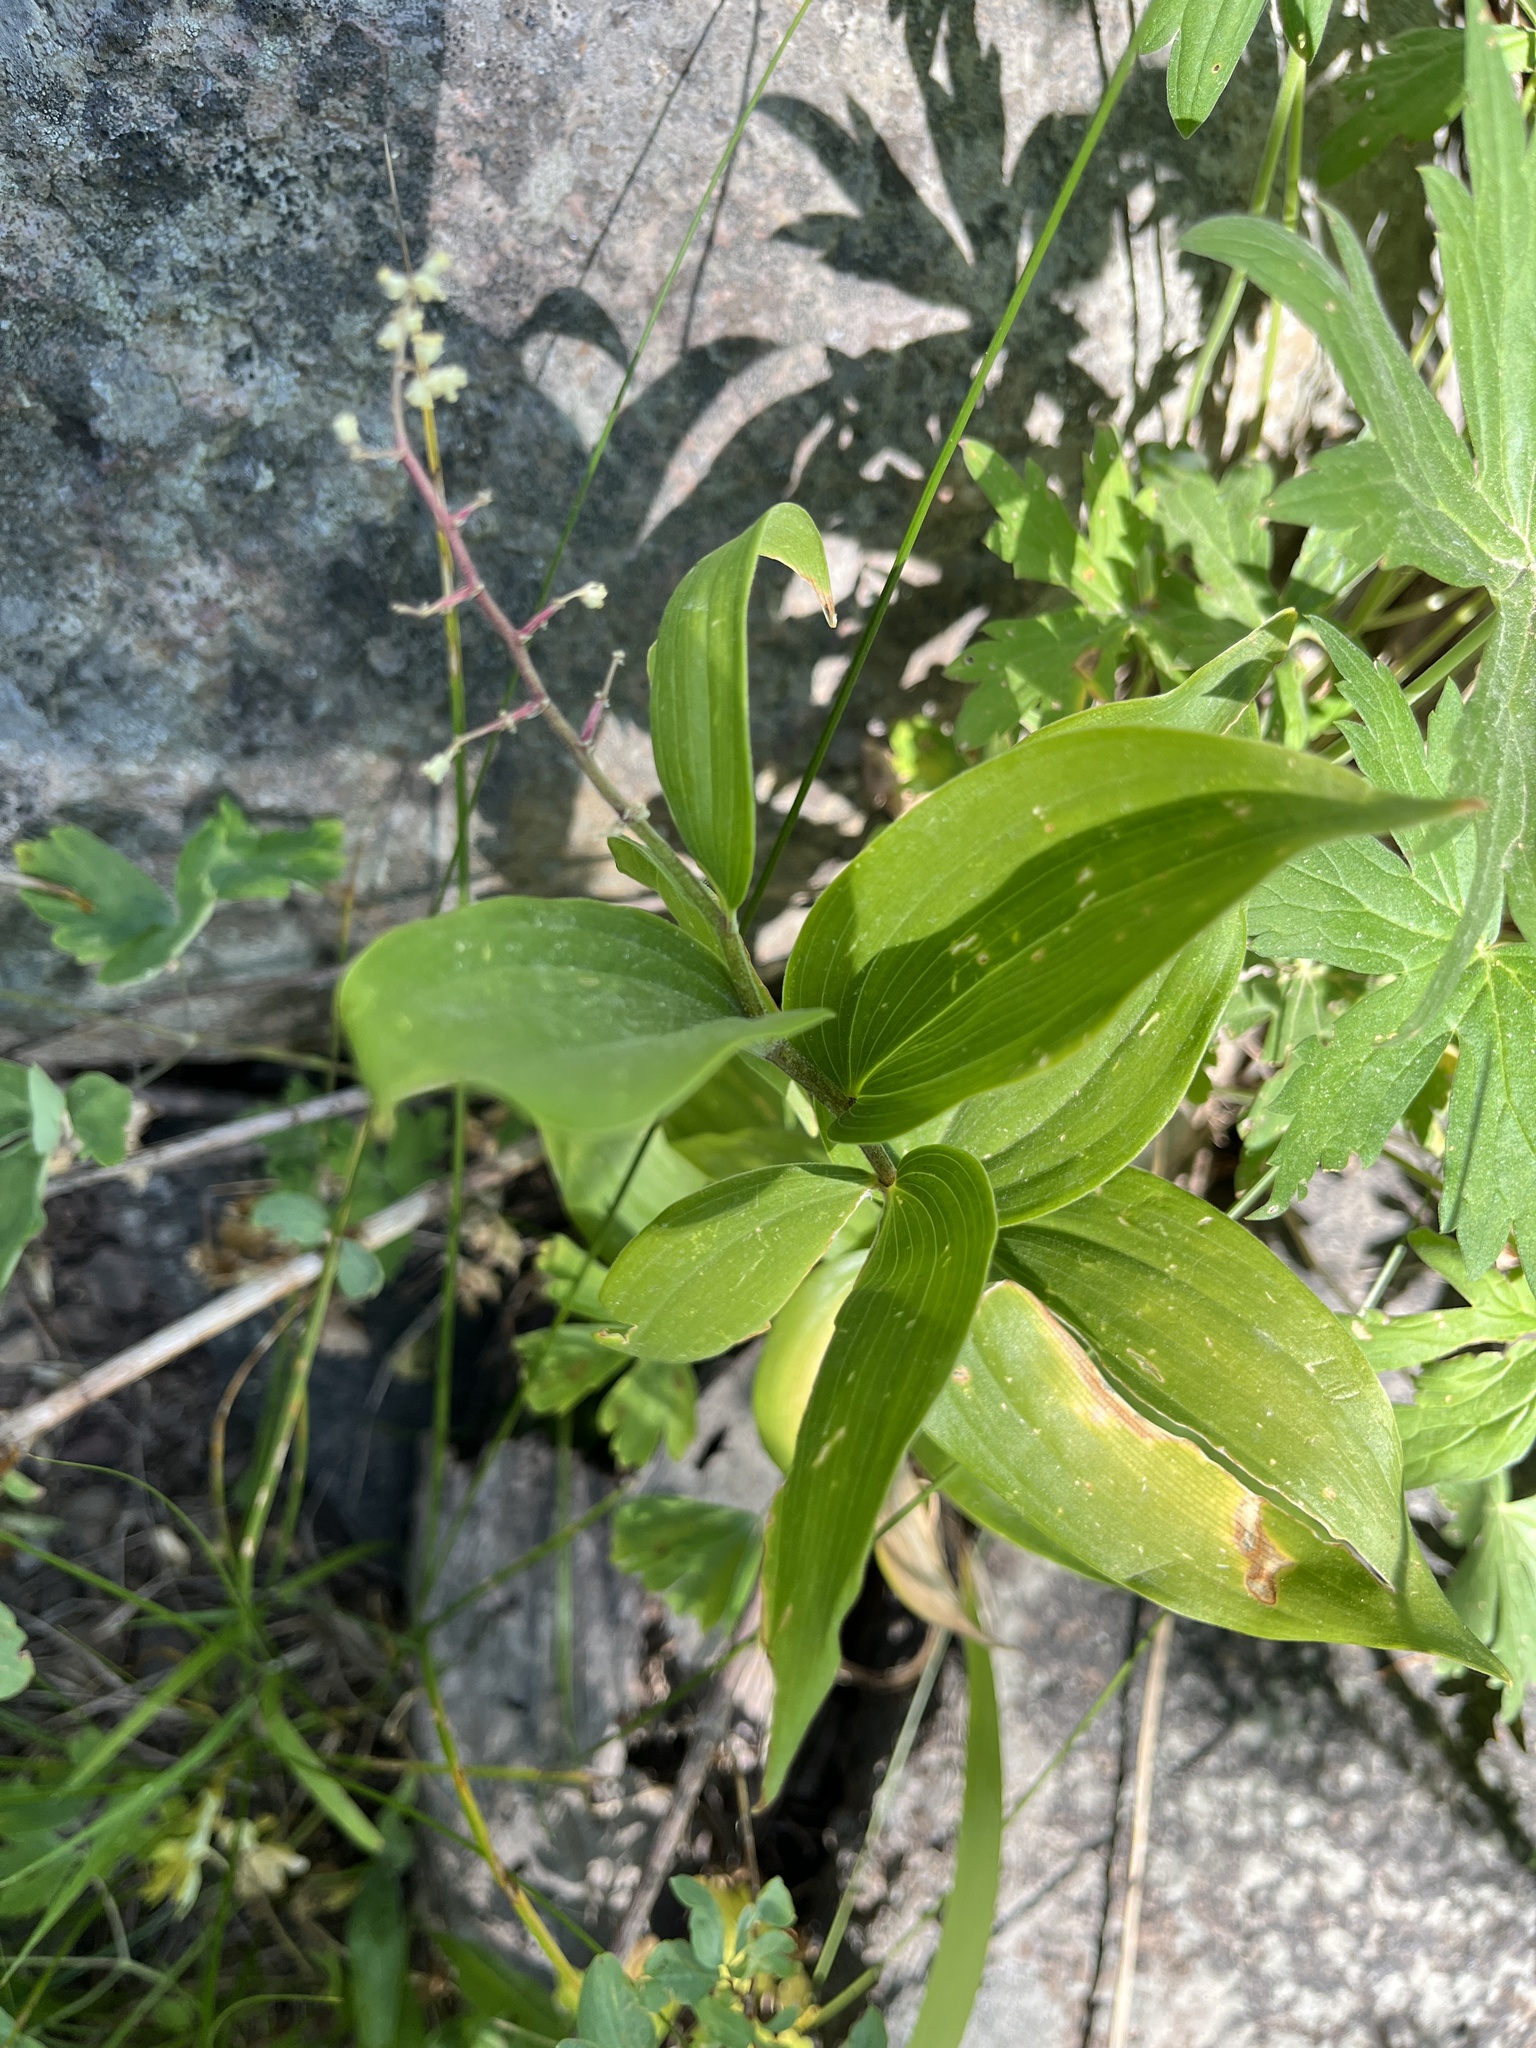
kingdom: Plantae
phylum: Tracheophyta
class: Liliopsida
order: Asparagales
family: Asparagaceae
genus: Maianthemum
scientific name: Maianthemum racemosum
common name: False spikenard
